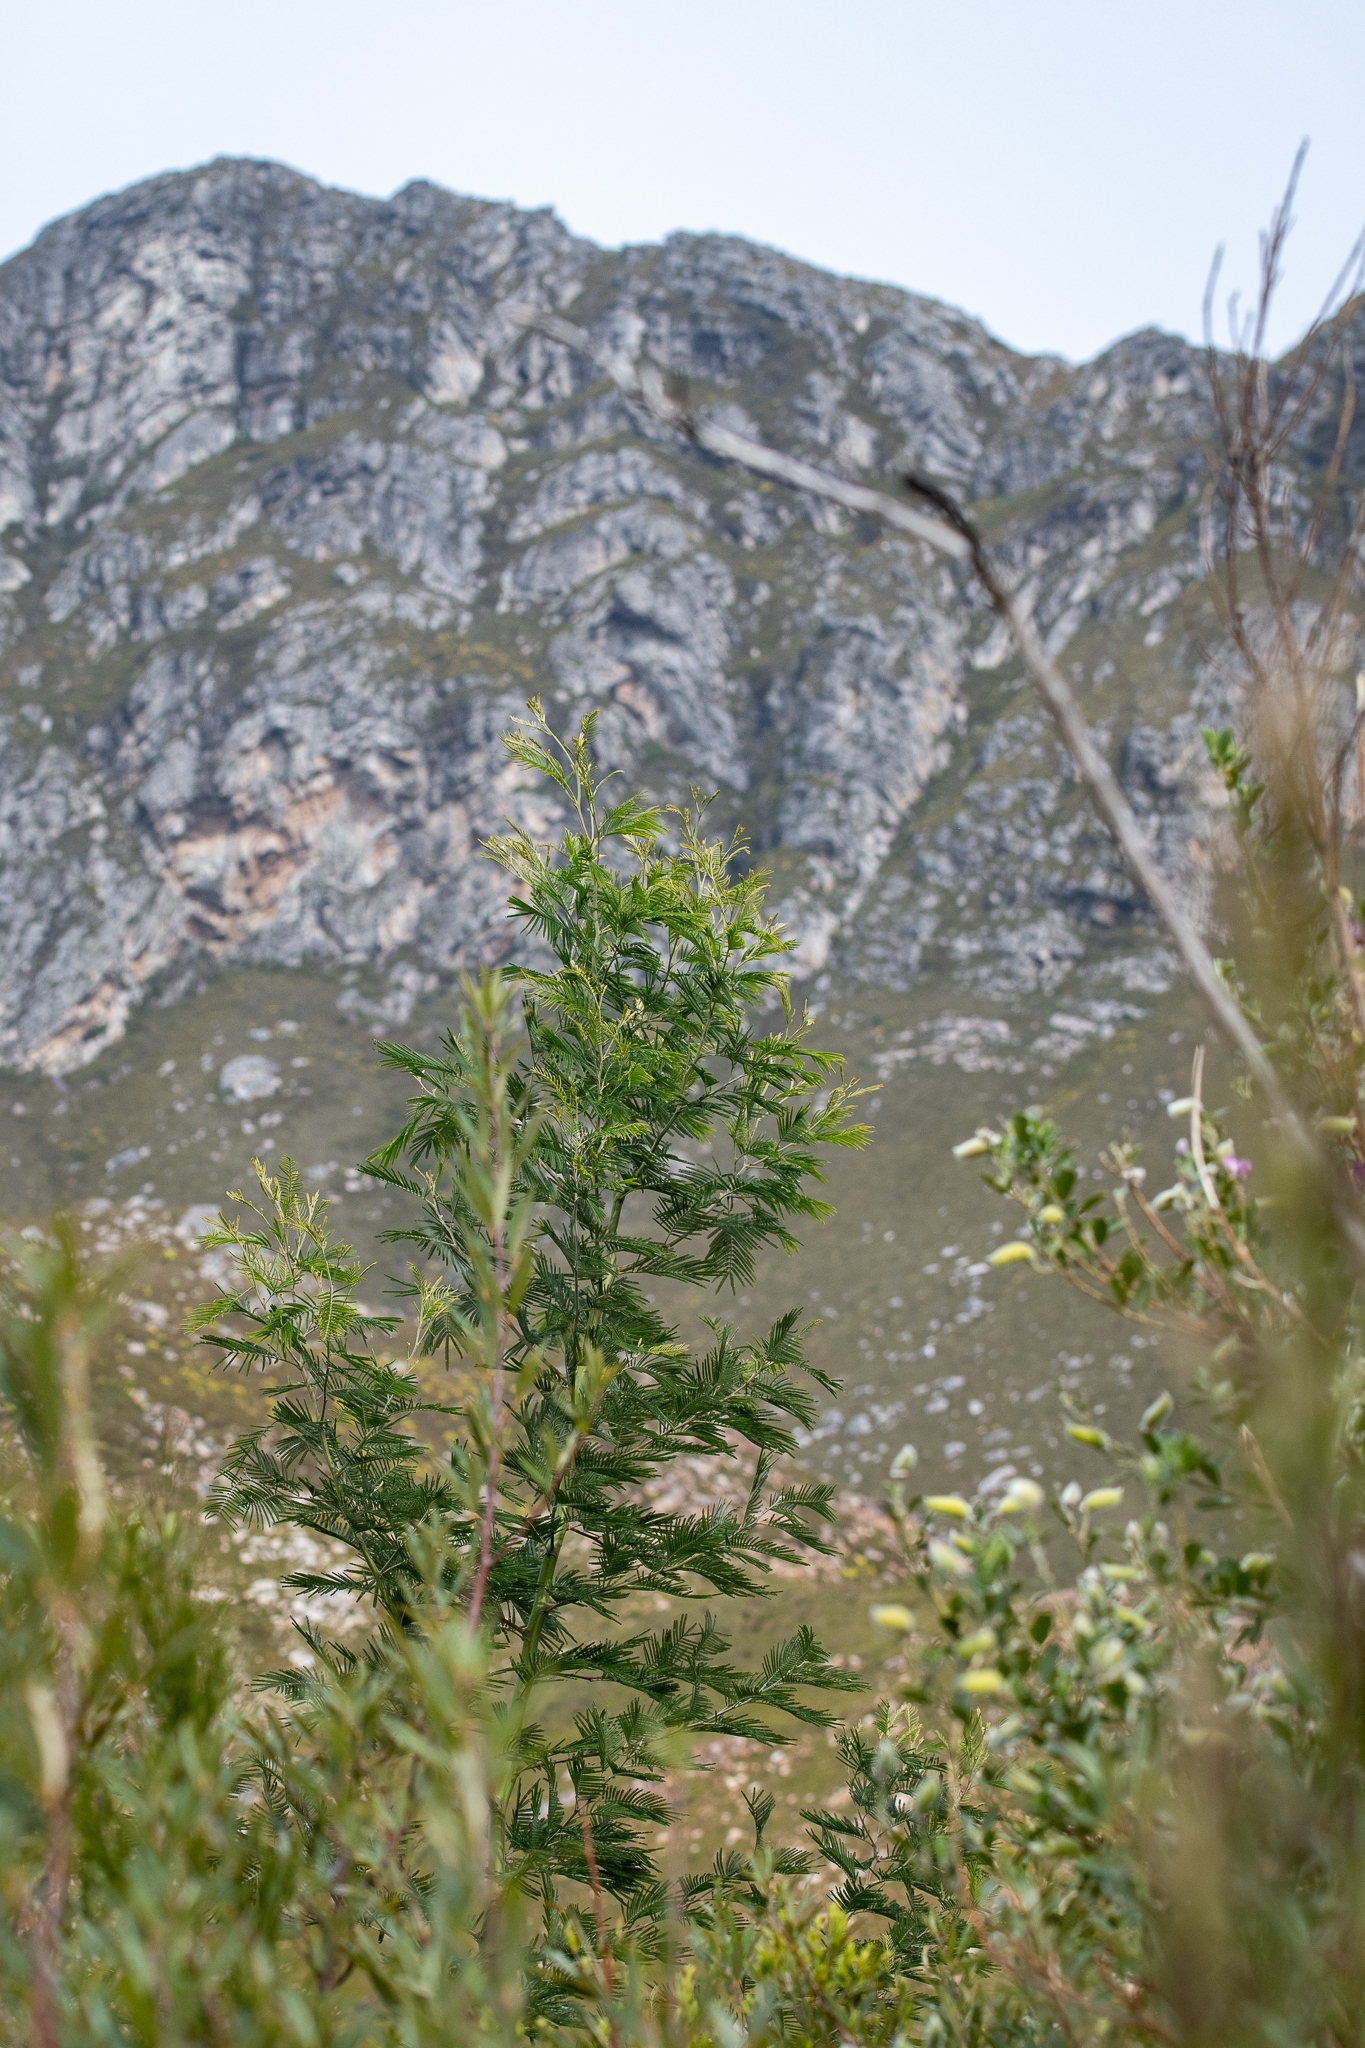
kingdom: Plantae
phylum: Tracheophyta
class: Magnoliopsida
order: Fabales
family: Fabaceae
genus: Acacia
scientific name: Acacia mearnsii
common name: Black wattle
